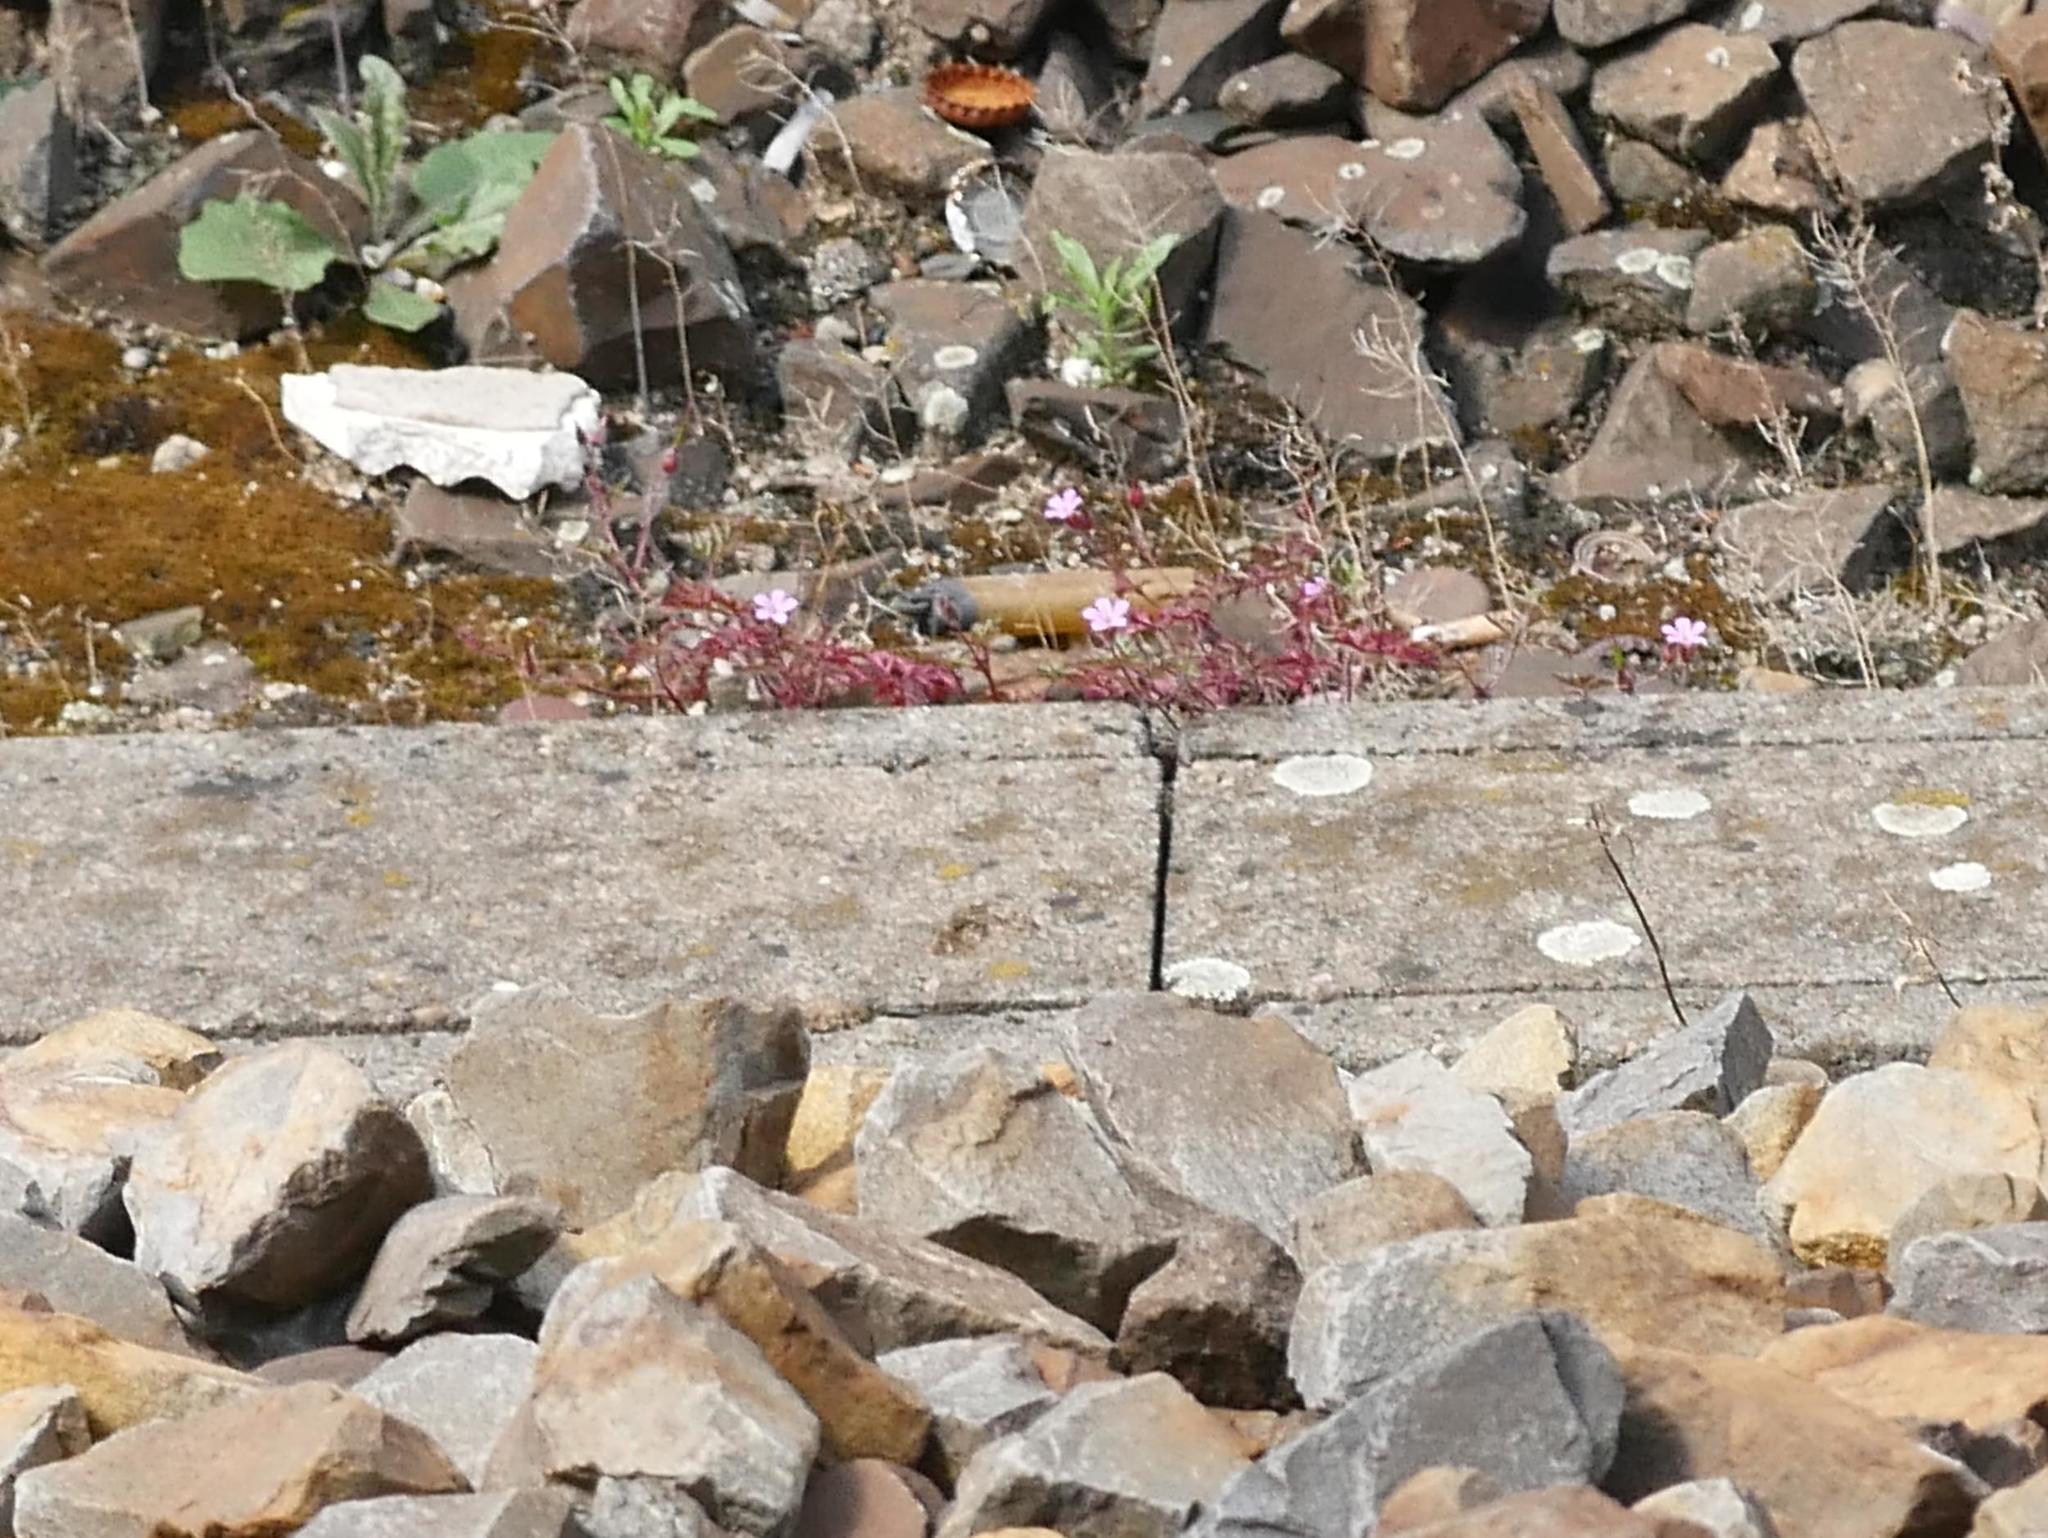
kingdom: Plantae
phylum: Tracheophyta
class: Magnoliopsida
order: Geraniales
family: Geraniaceae
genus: Geranium
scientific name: Geranium robertianum
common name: Herb-robert
